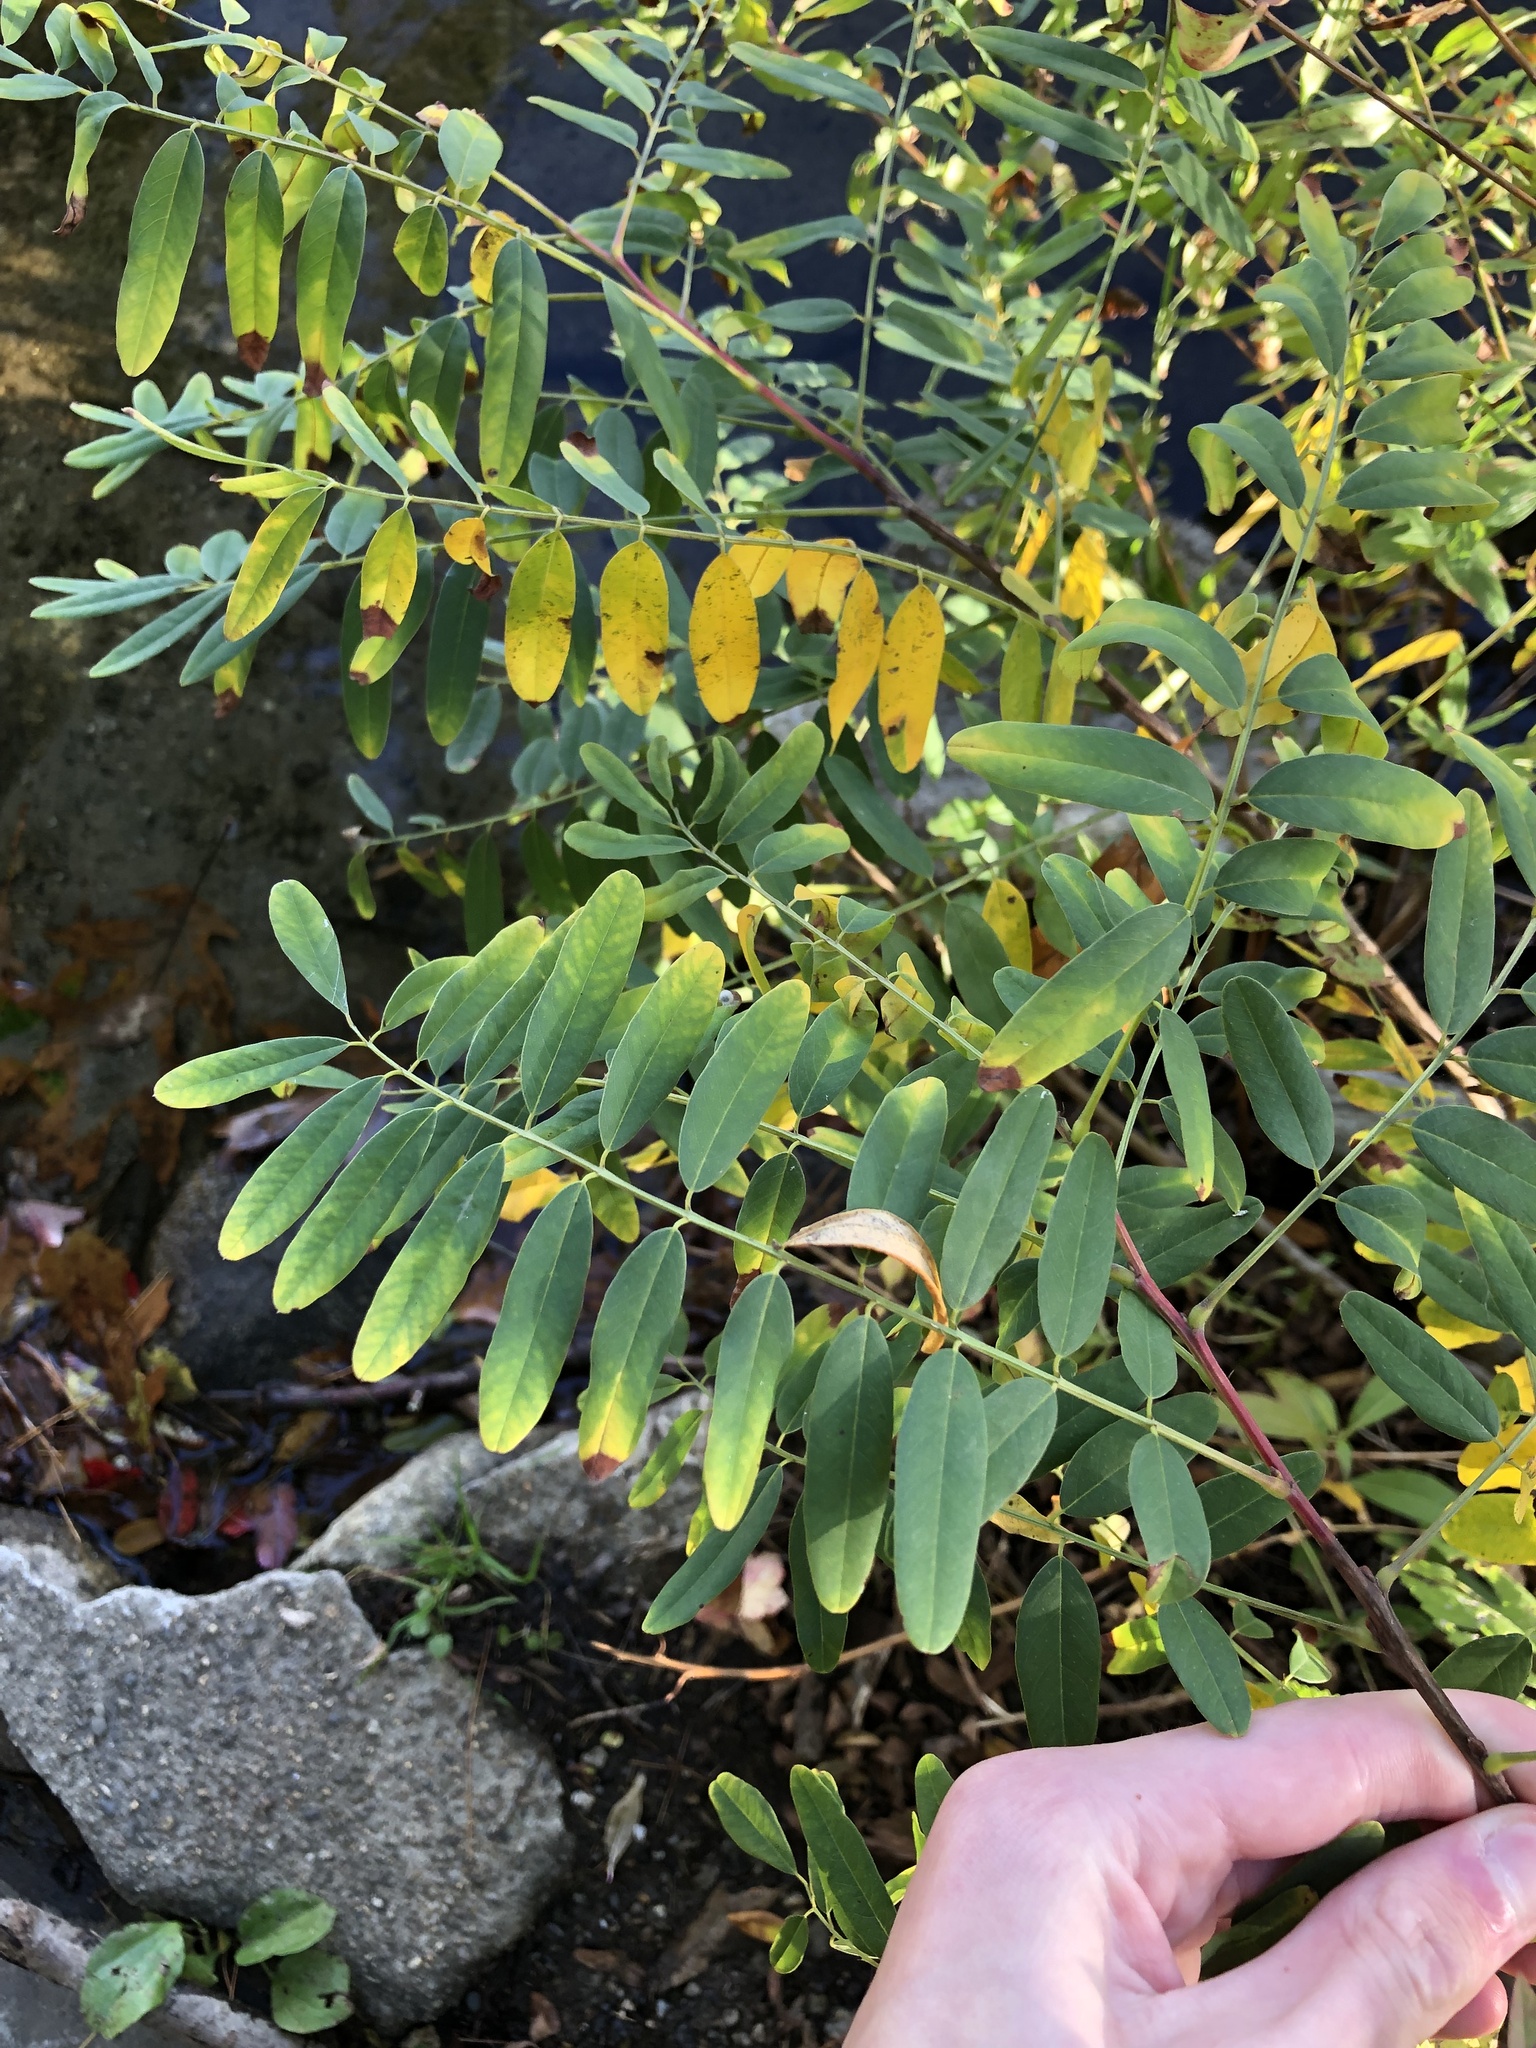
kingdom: Plantae
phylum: Tracheophyta
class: Magnoliopsida
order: Fabales
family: Fabaceae
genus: Amorpha
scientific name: Amorpha fruticosa
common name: False indigo
